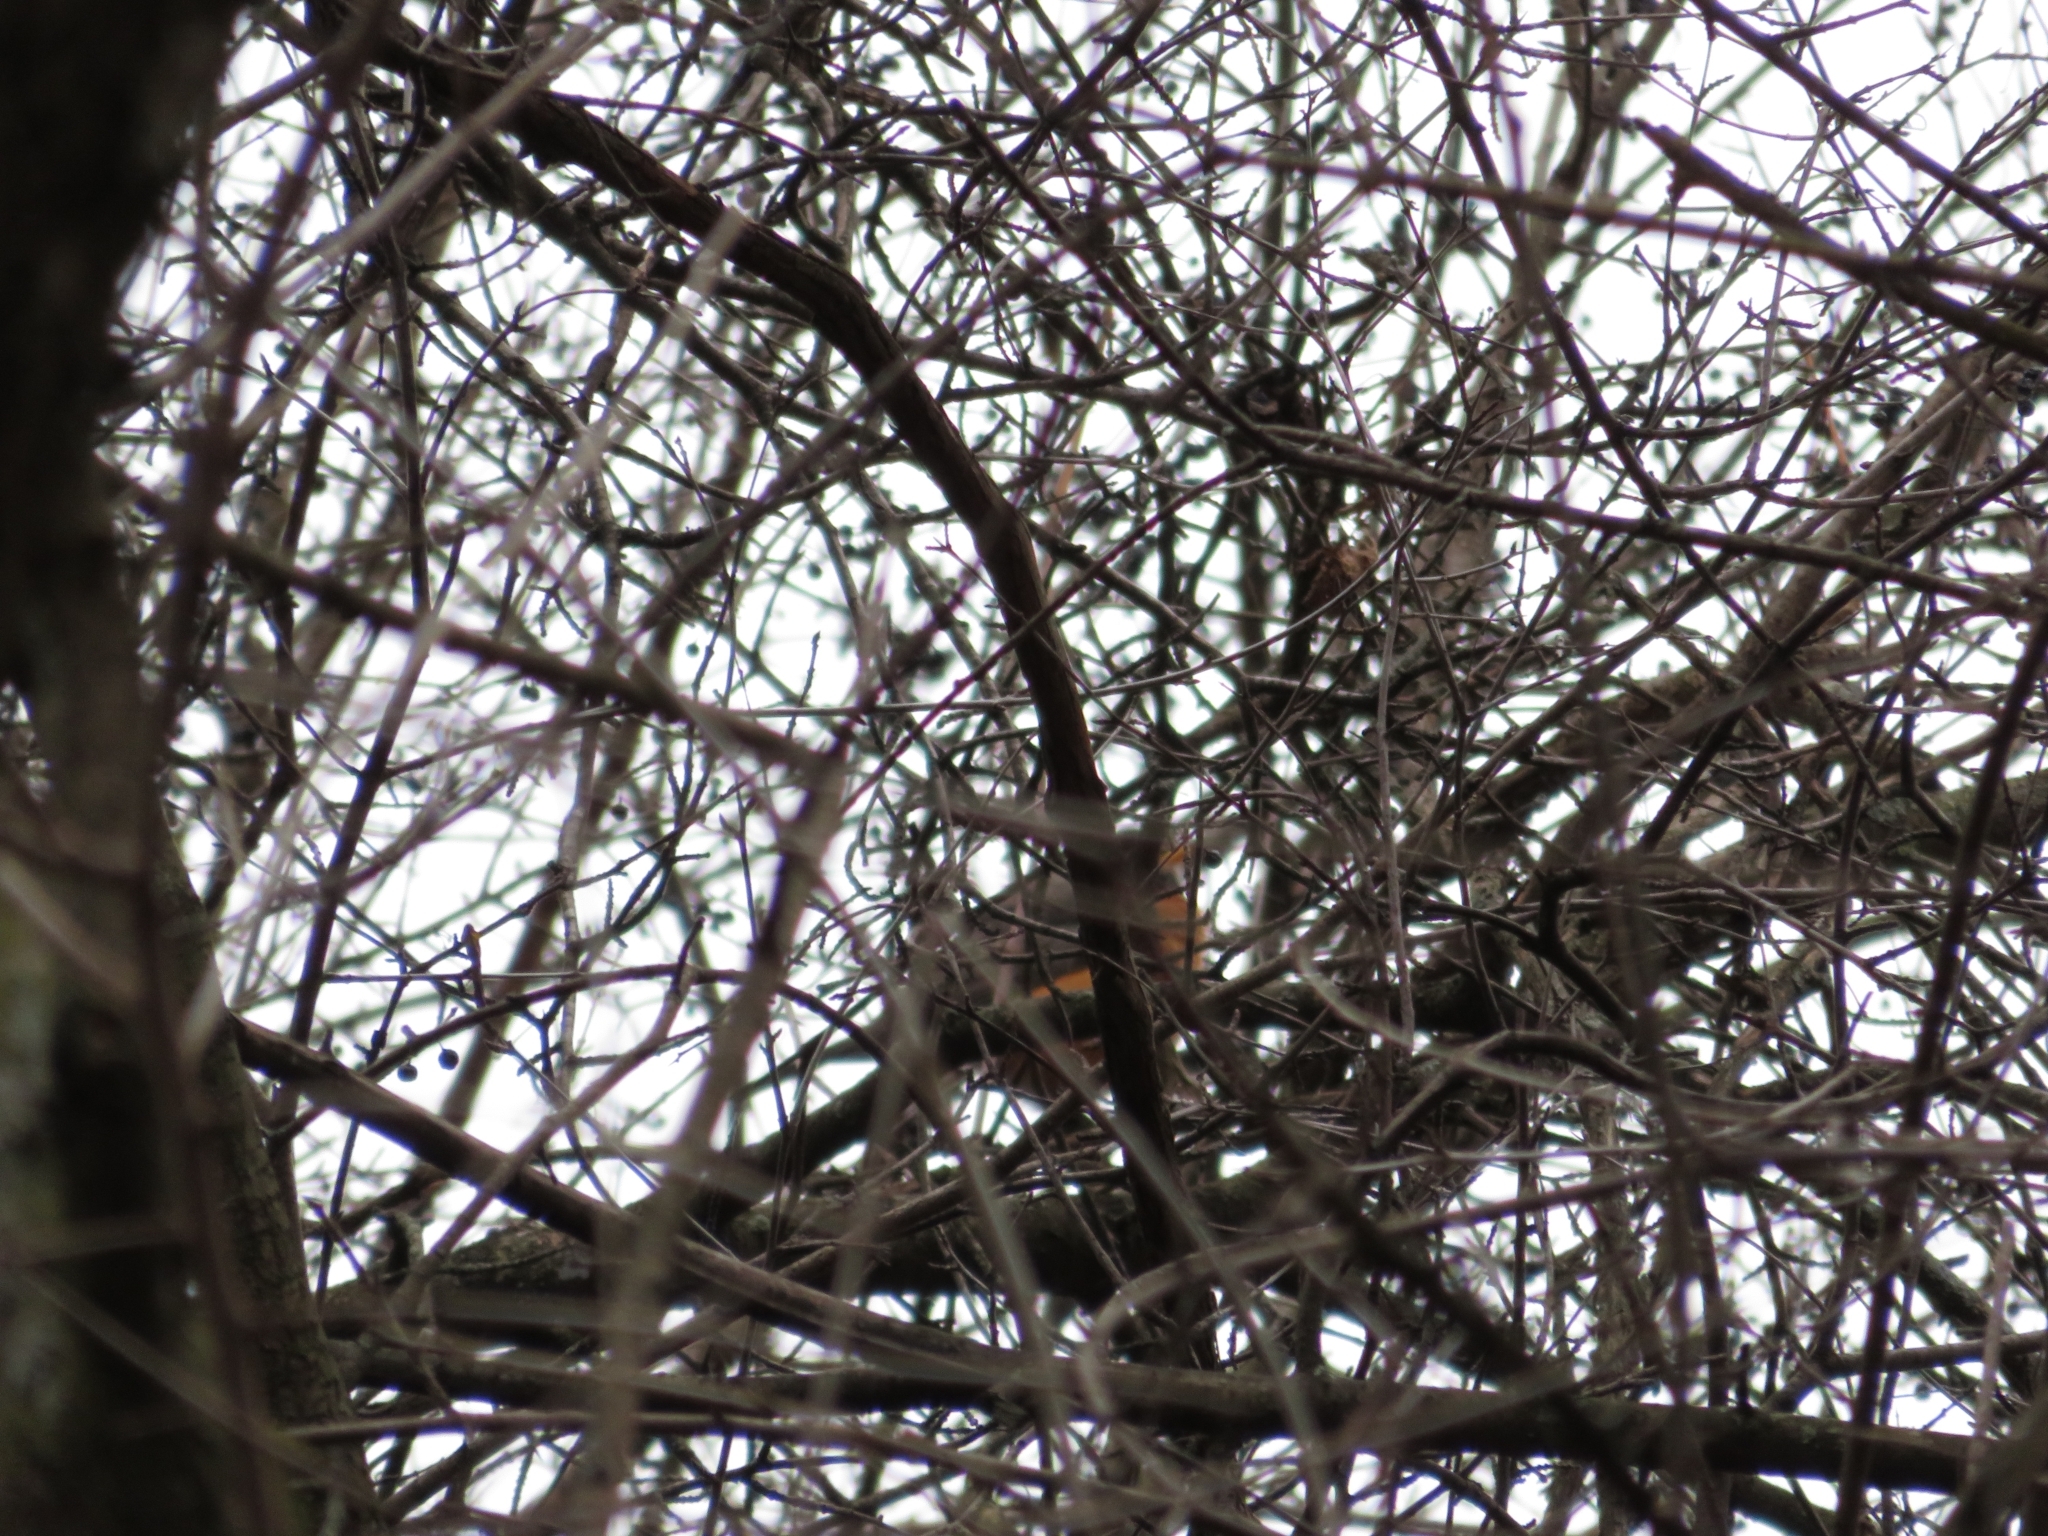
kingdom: Animalia
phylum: Chordata
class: Aves
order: Passeriformes
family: Turdidae
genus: Turdus
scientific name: Turdus migratorius
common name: American robin
